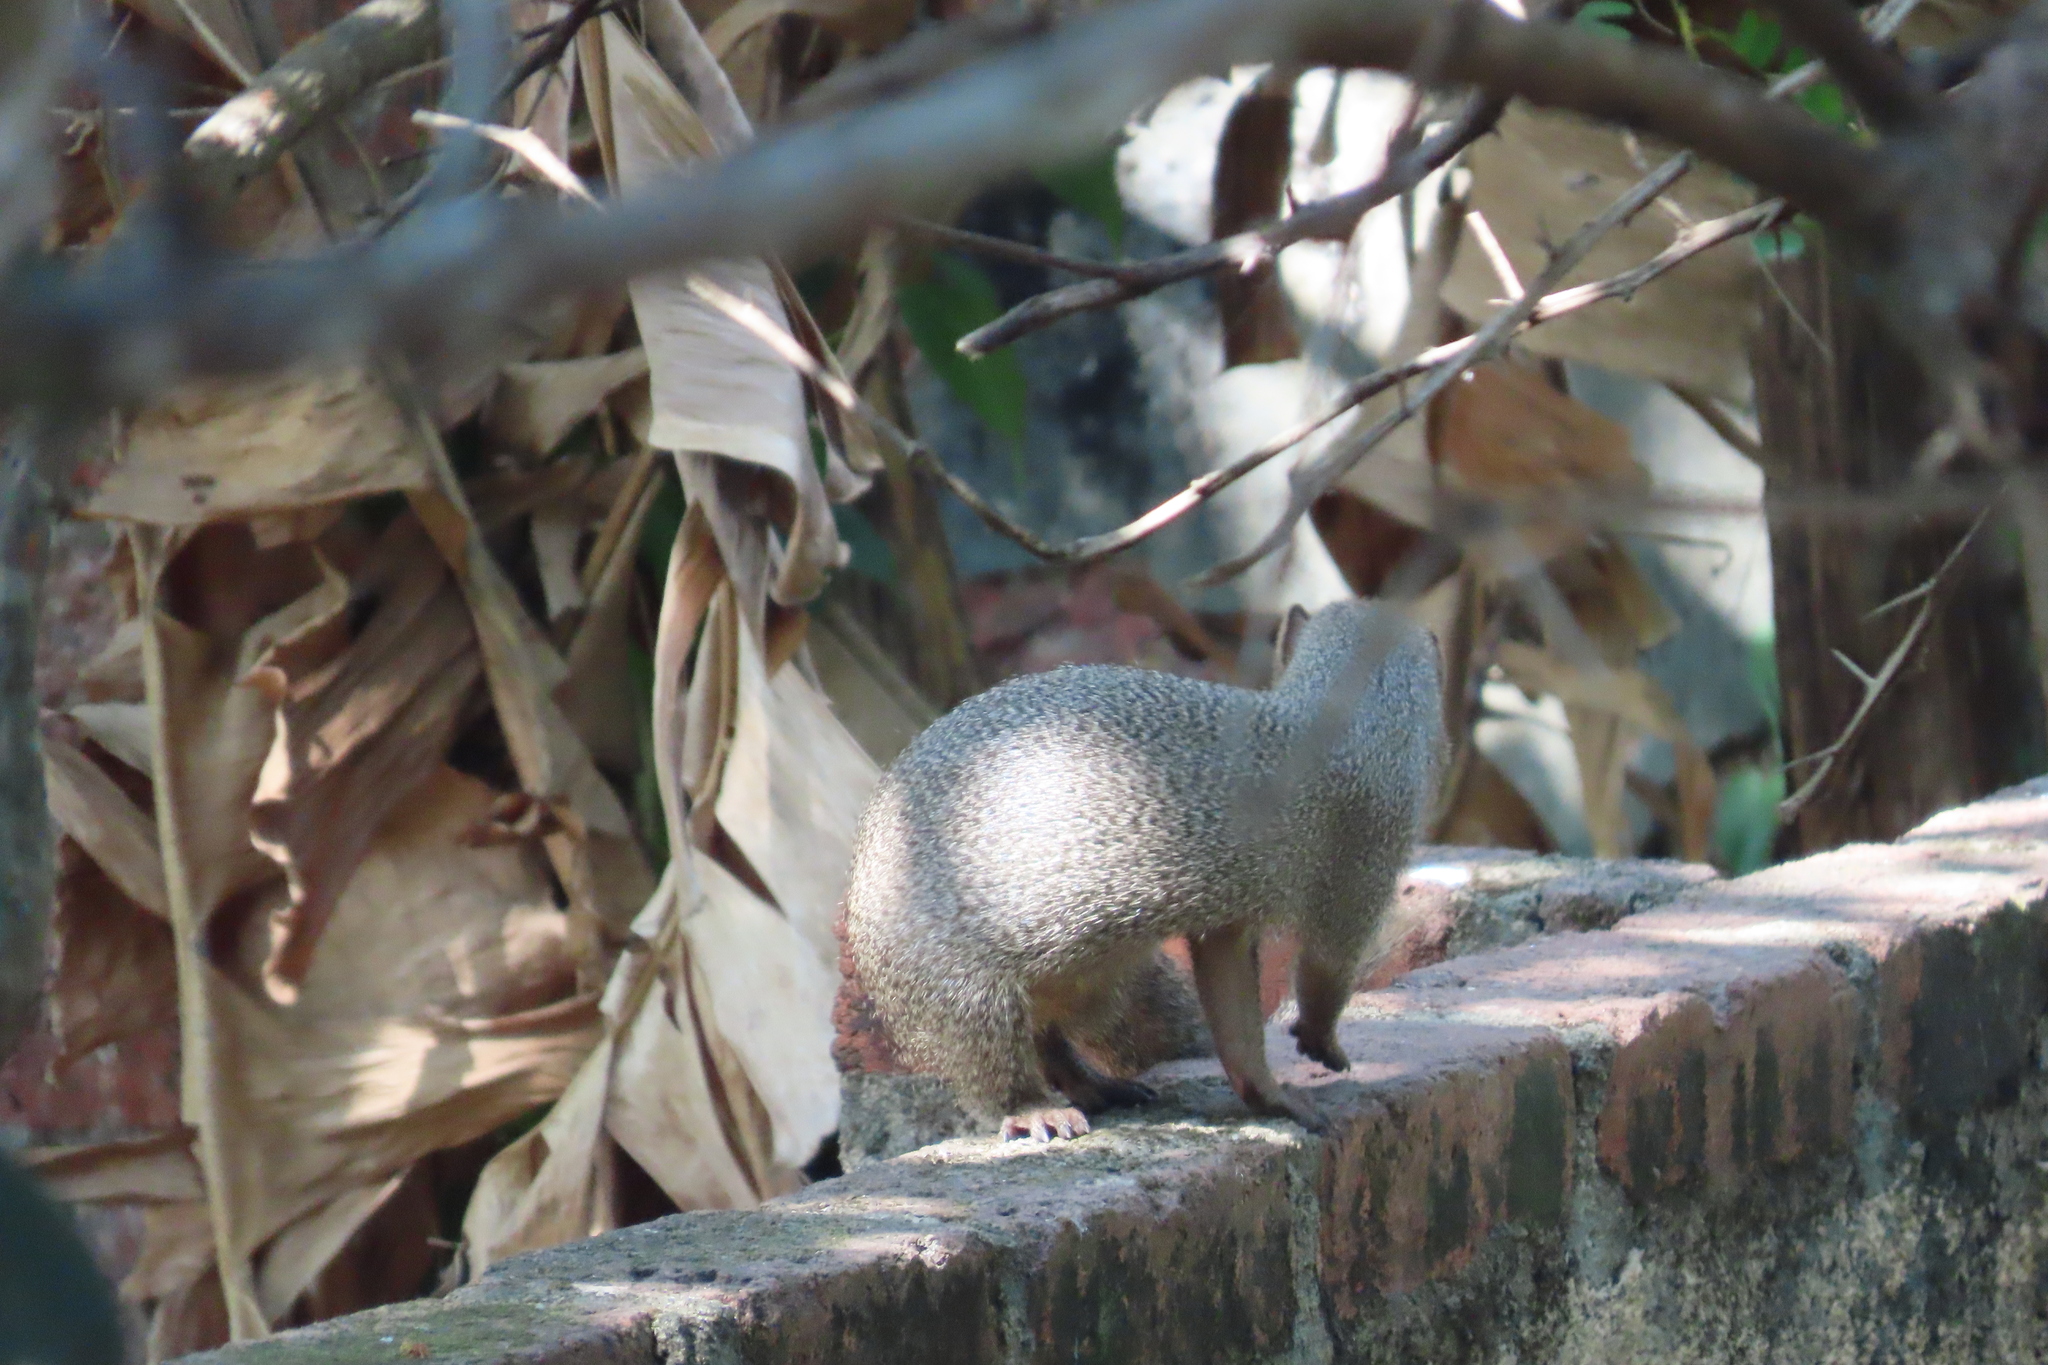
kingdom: Animalia
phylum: Chordata
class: Mammalia
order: Carnivora
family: Herpestidae
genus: Herpestes
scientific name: Herpestes edwardsi
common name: Indian gray mongoose
